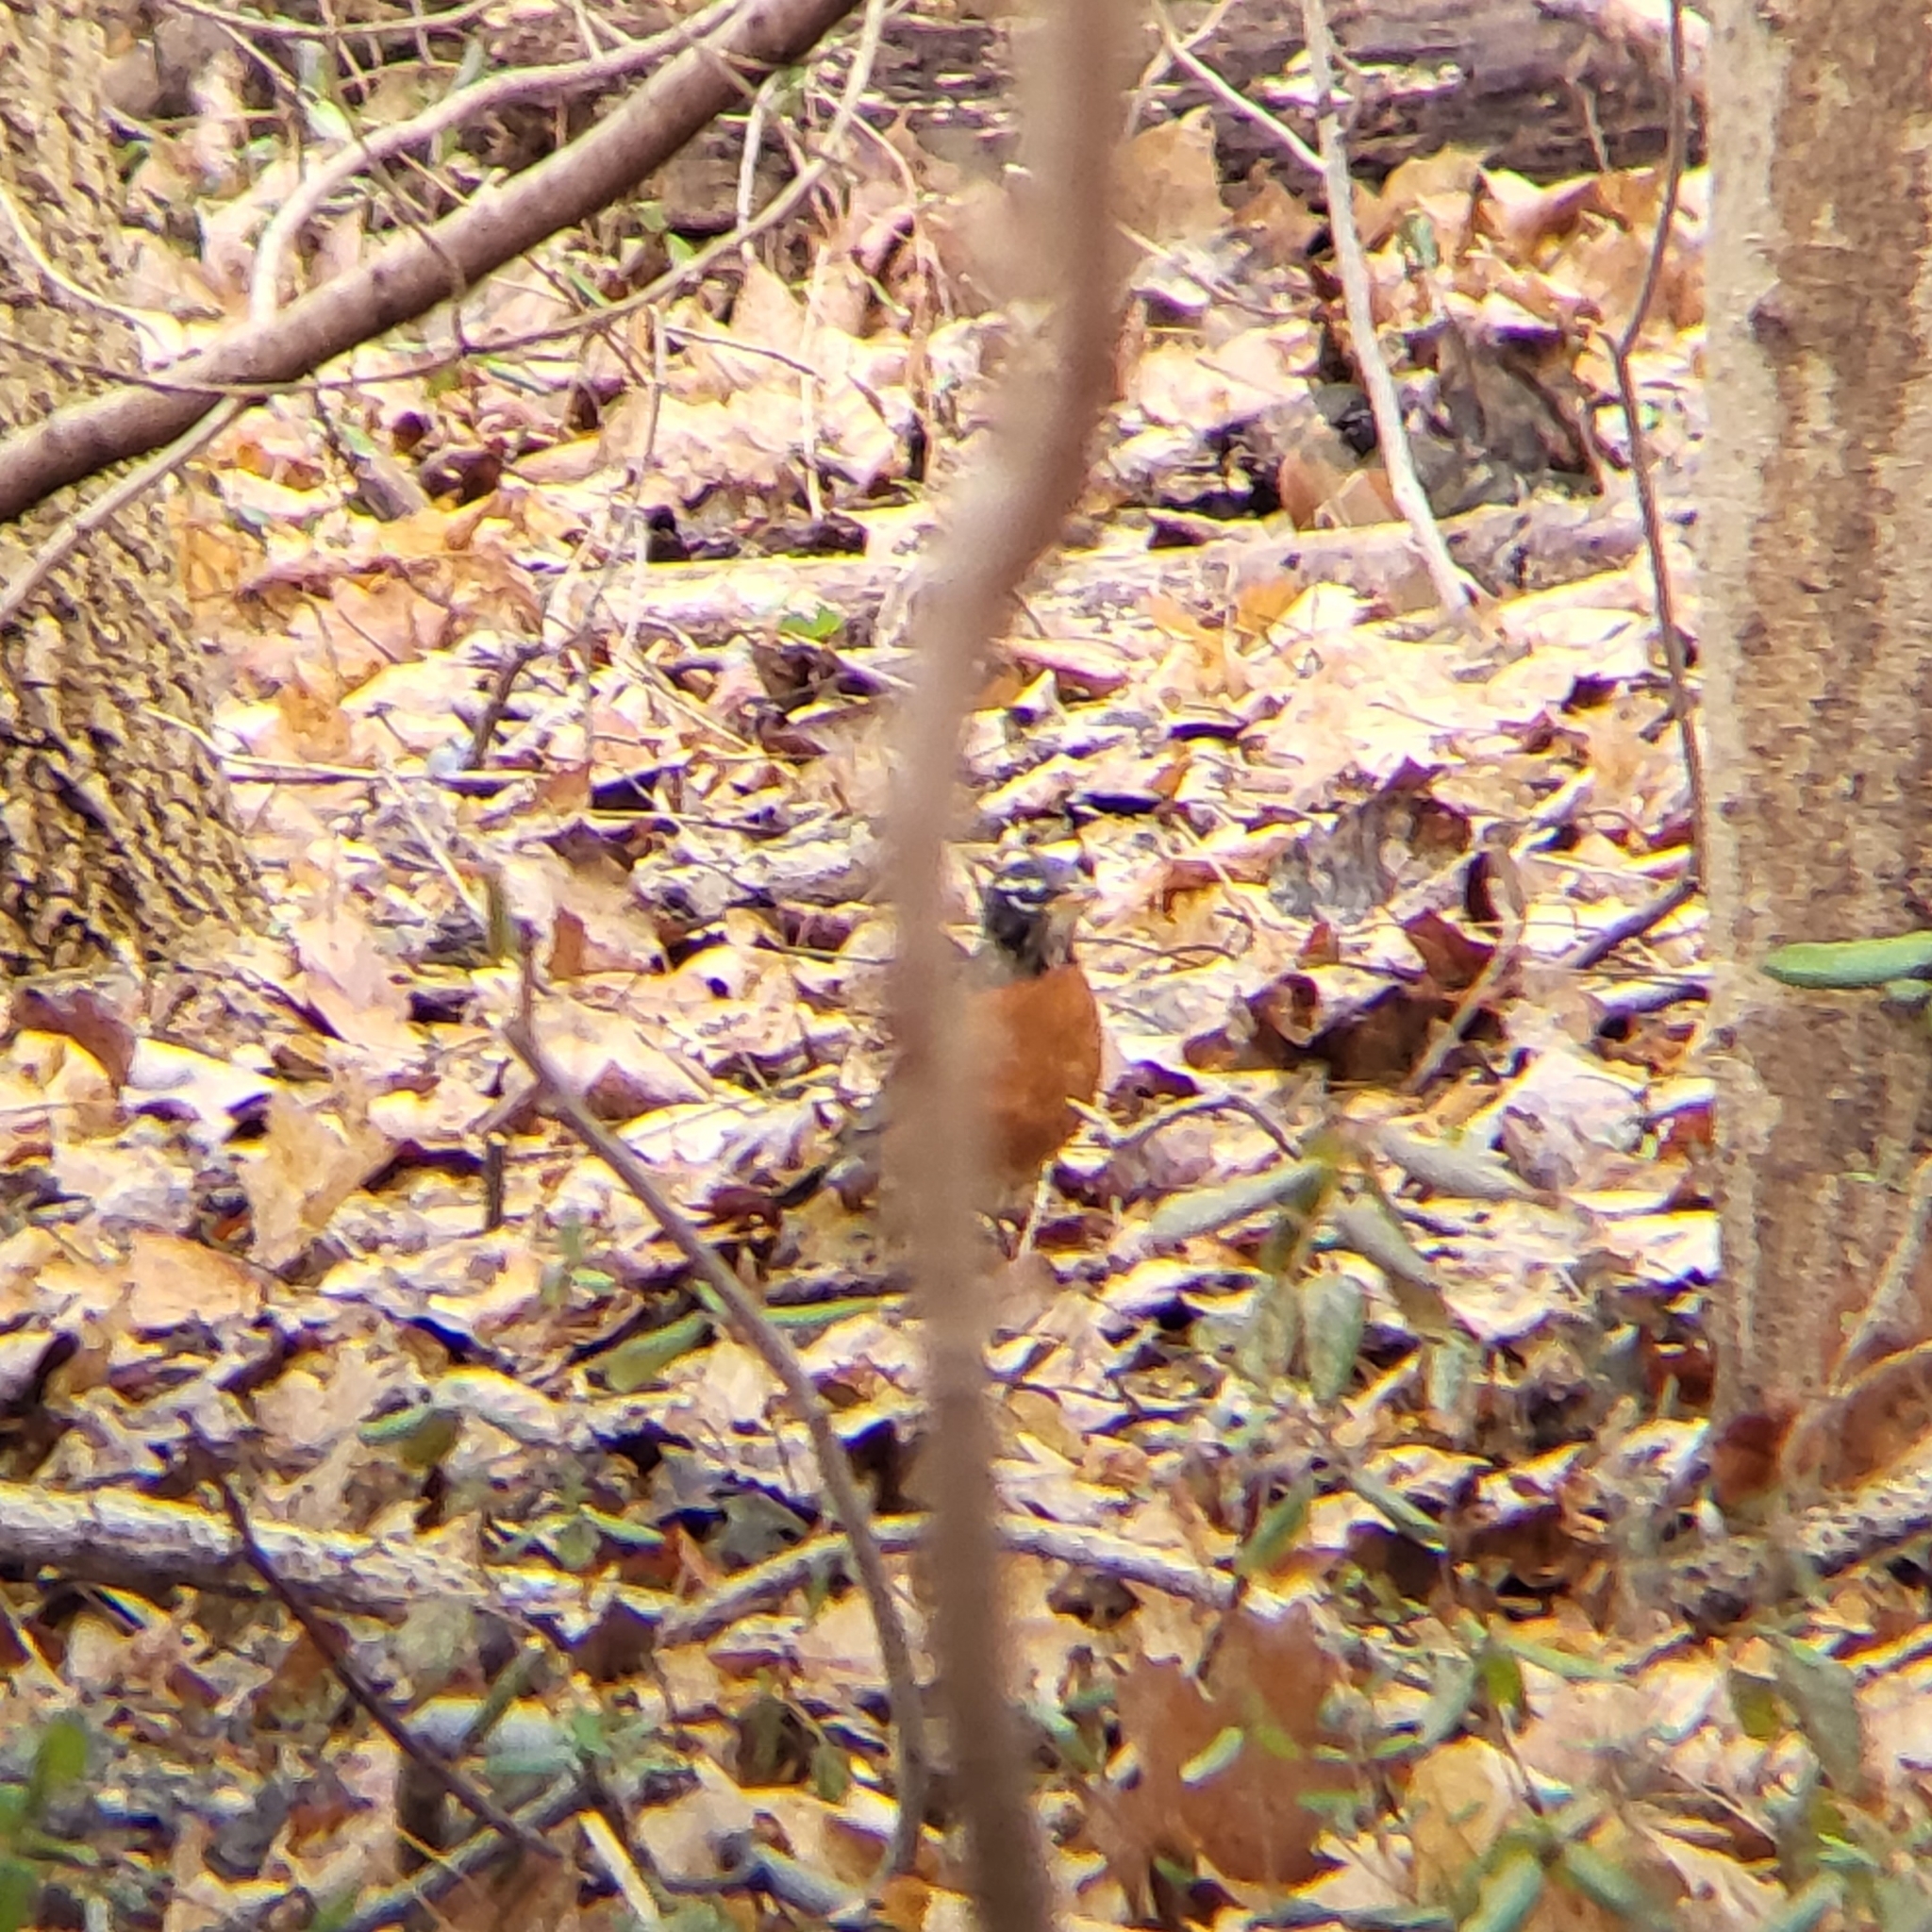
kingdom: Animalia
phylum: Chordata
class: Aves
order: Passeriformes
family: Turdidae
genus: Turdus
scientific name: Turdus migratorius
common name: American robin
